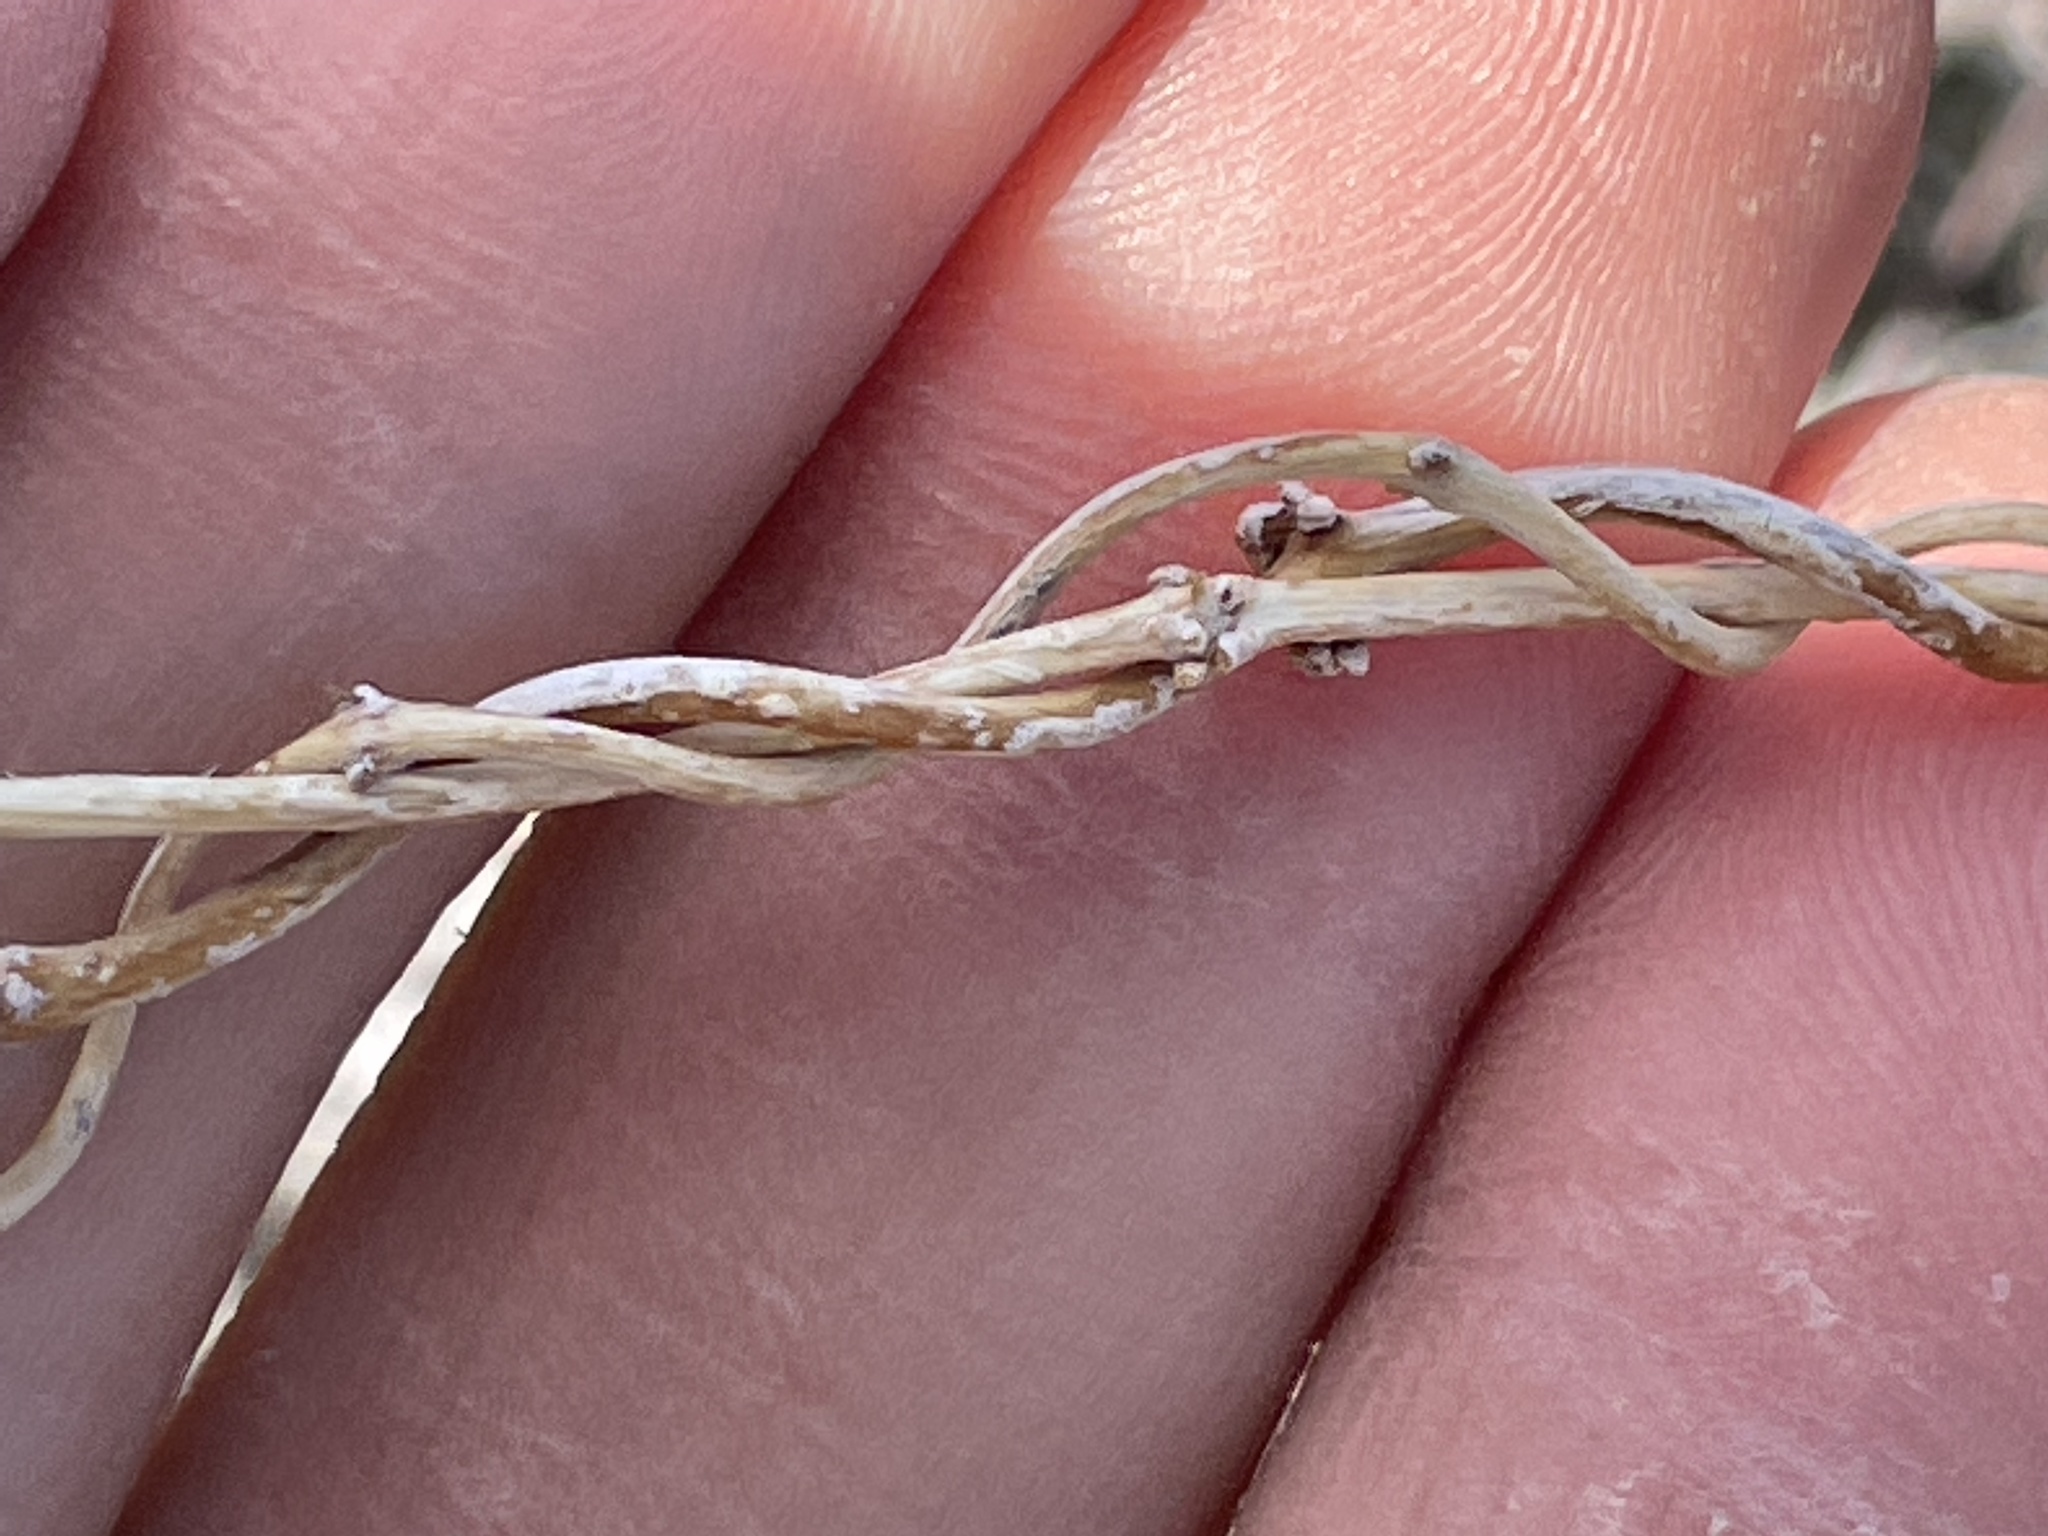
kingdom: Plantae
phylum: Tracheophyta
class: Magnoliopsida
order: Gentianales
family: Apocynaceae
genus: Matelea
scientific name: Matelea parvifolia
